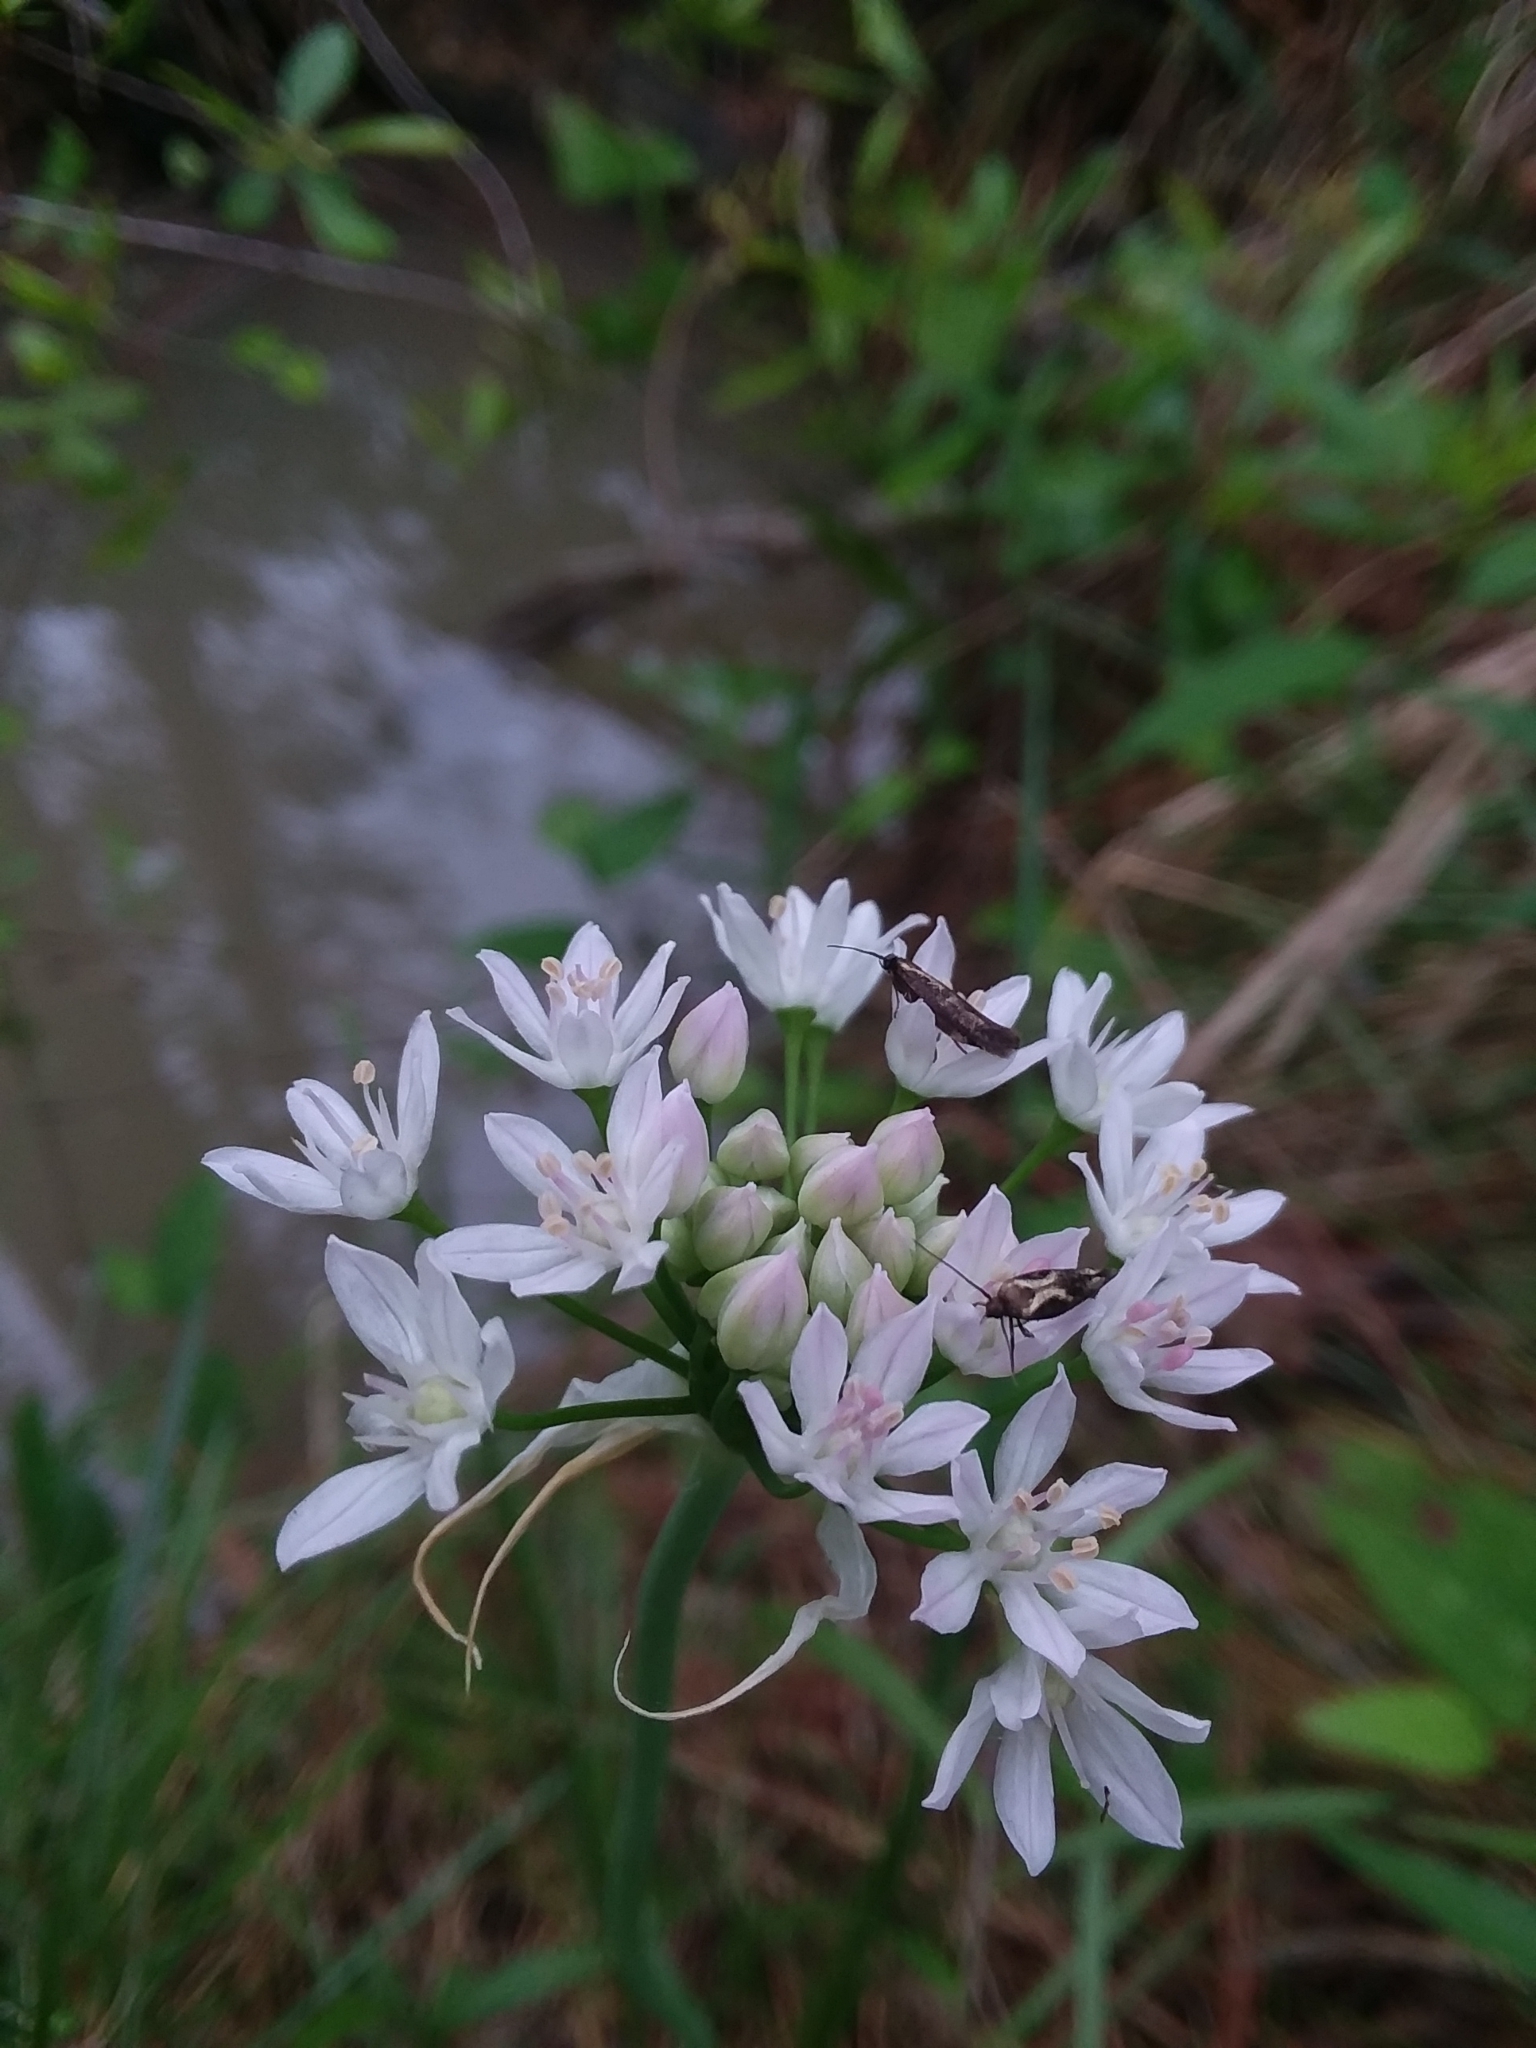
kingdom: Plantae
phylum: Tracheophyta
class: Liliopsida
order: Asparagales
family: Amaryllidaceae
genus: Allium
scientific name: Allium canadense
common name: Meadow garlic
